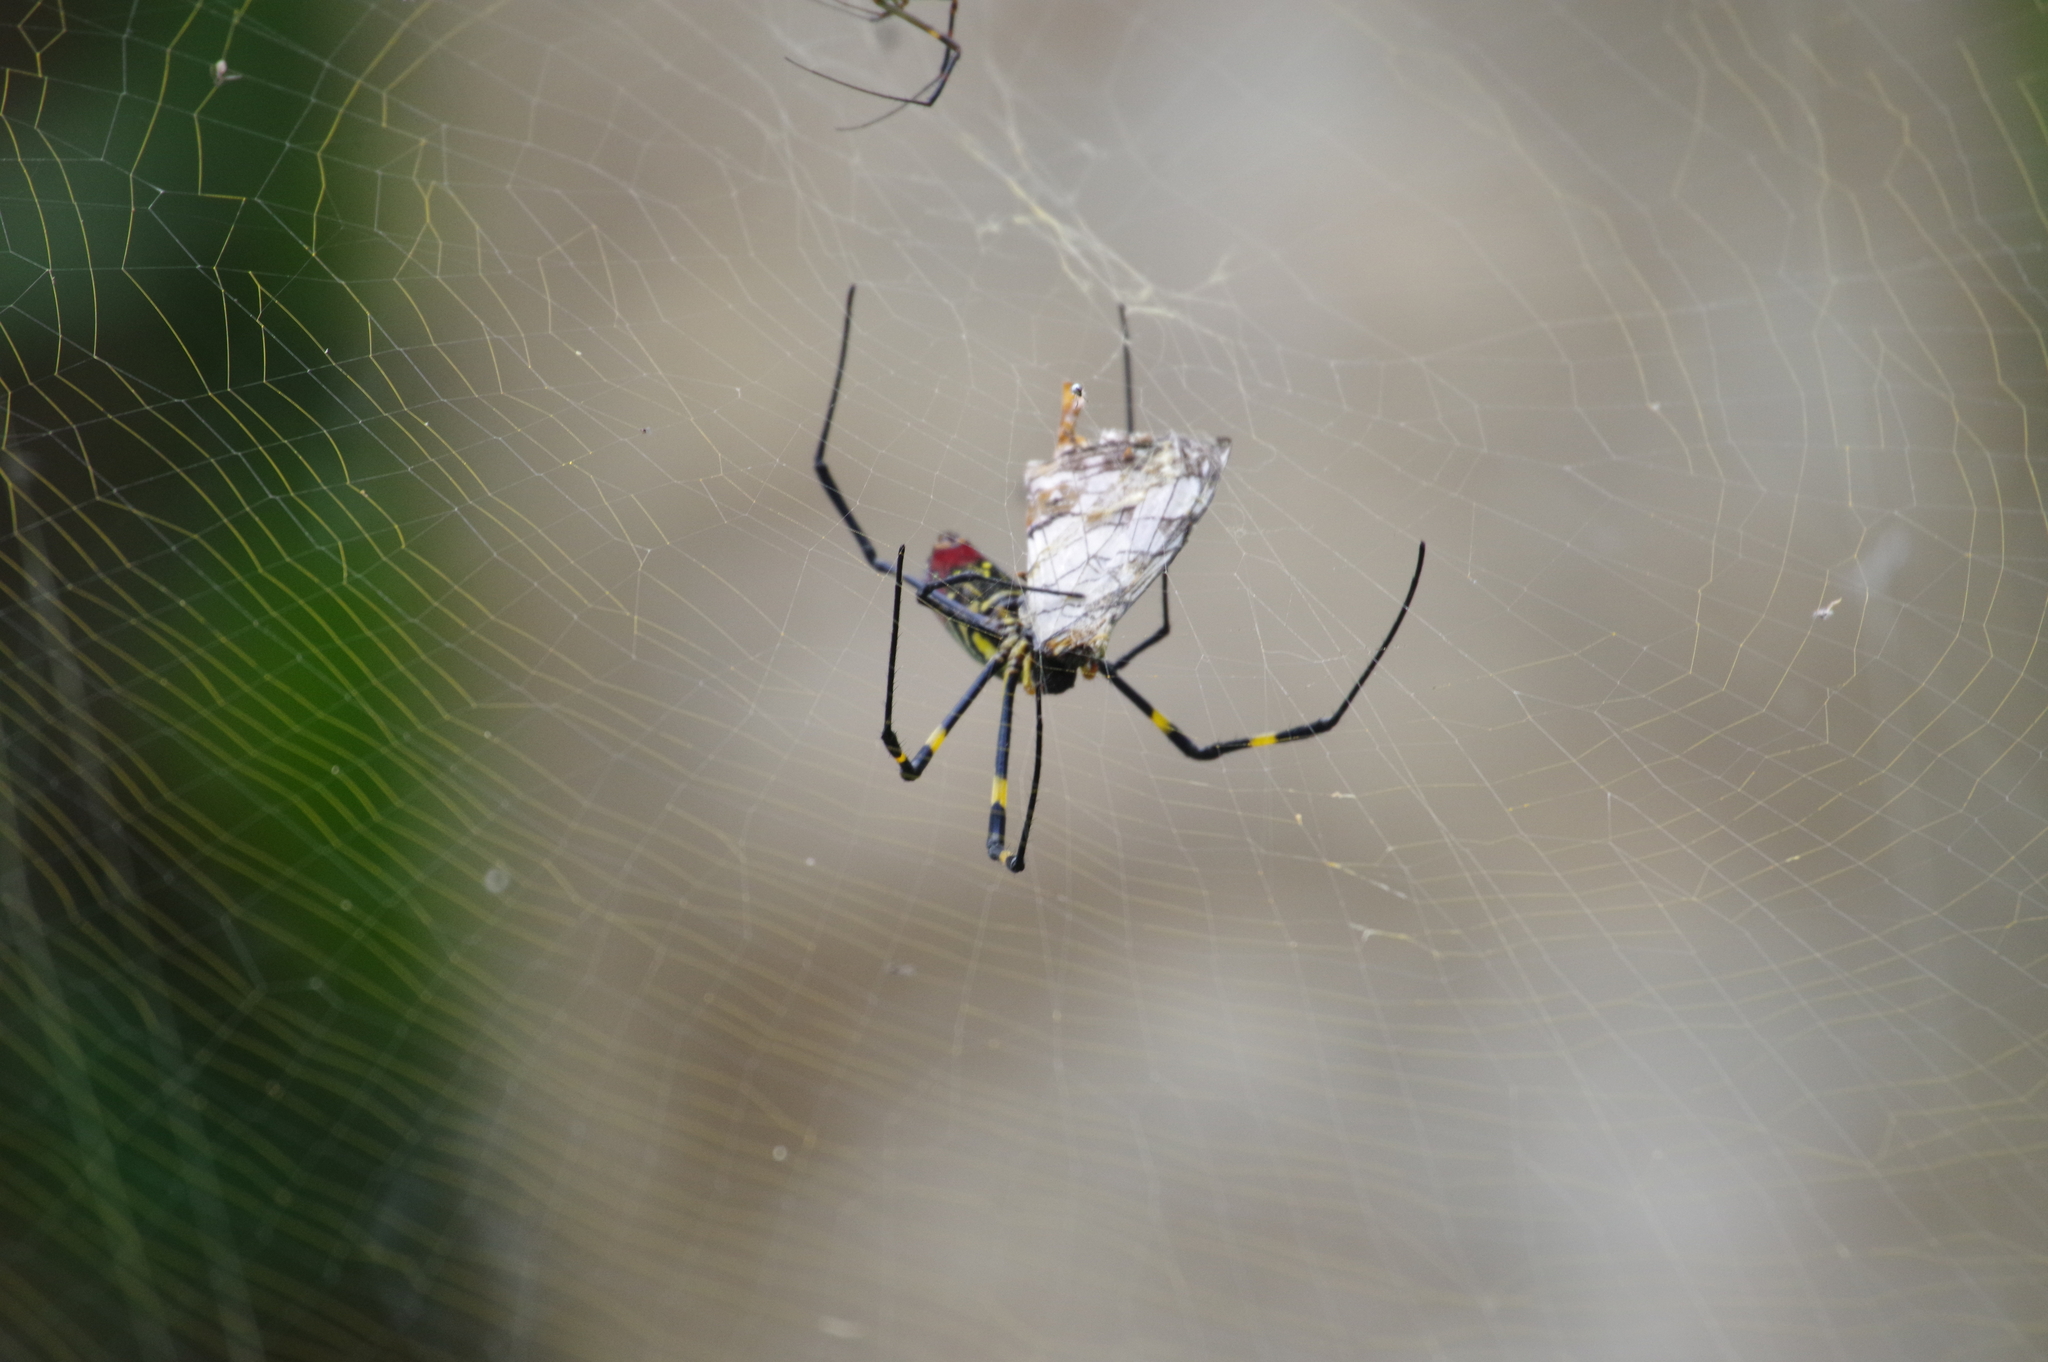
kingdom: Animalia
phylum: Arthropoda
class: Insecta
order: Lepidoptera
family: Nymphalidae
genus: Cyrestis
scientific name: Cyrestis thyodamas
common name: Common mapwing
